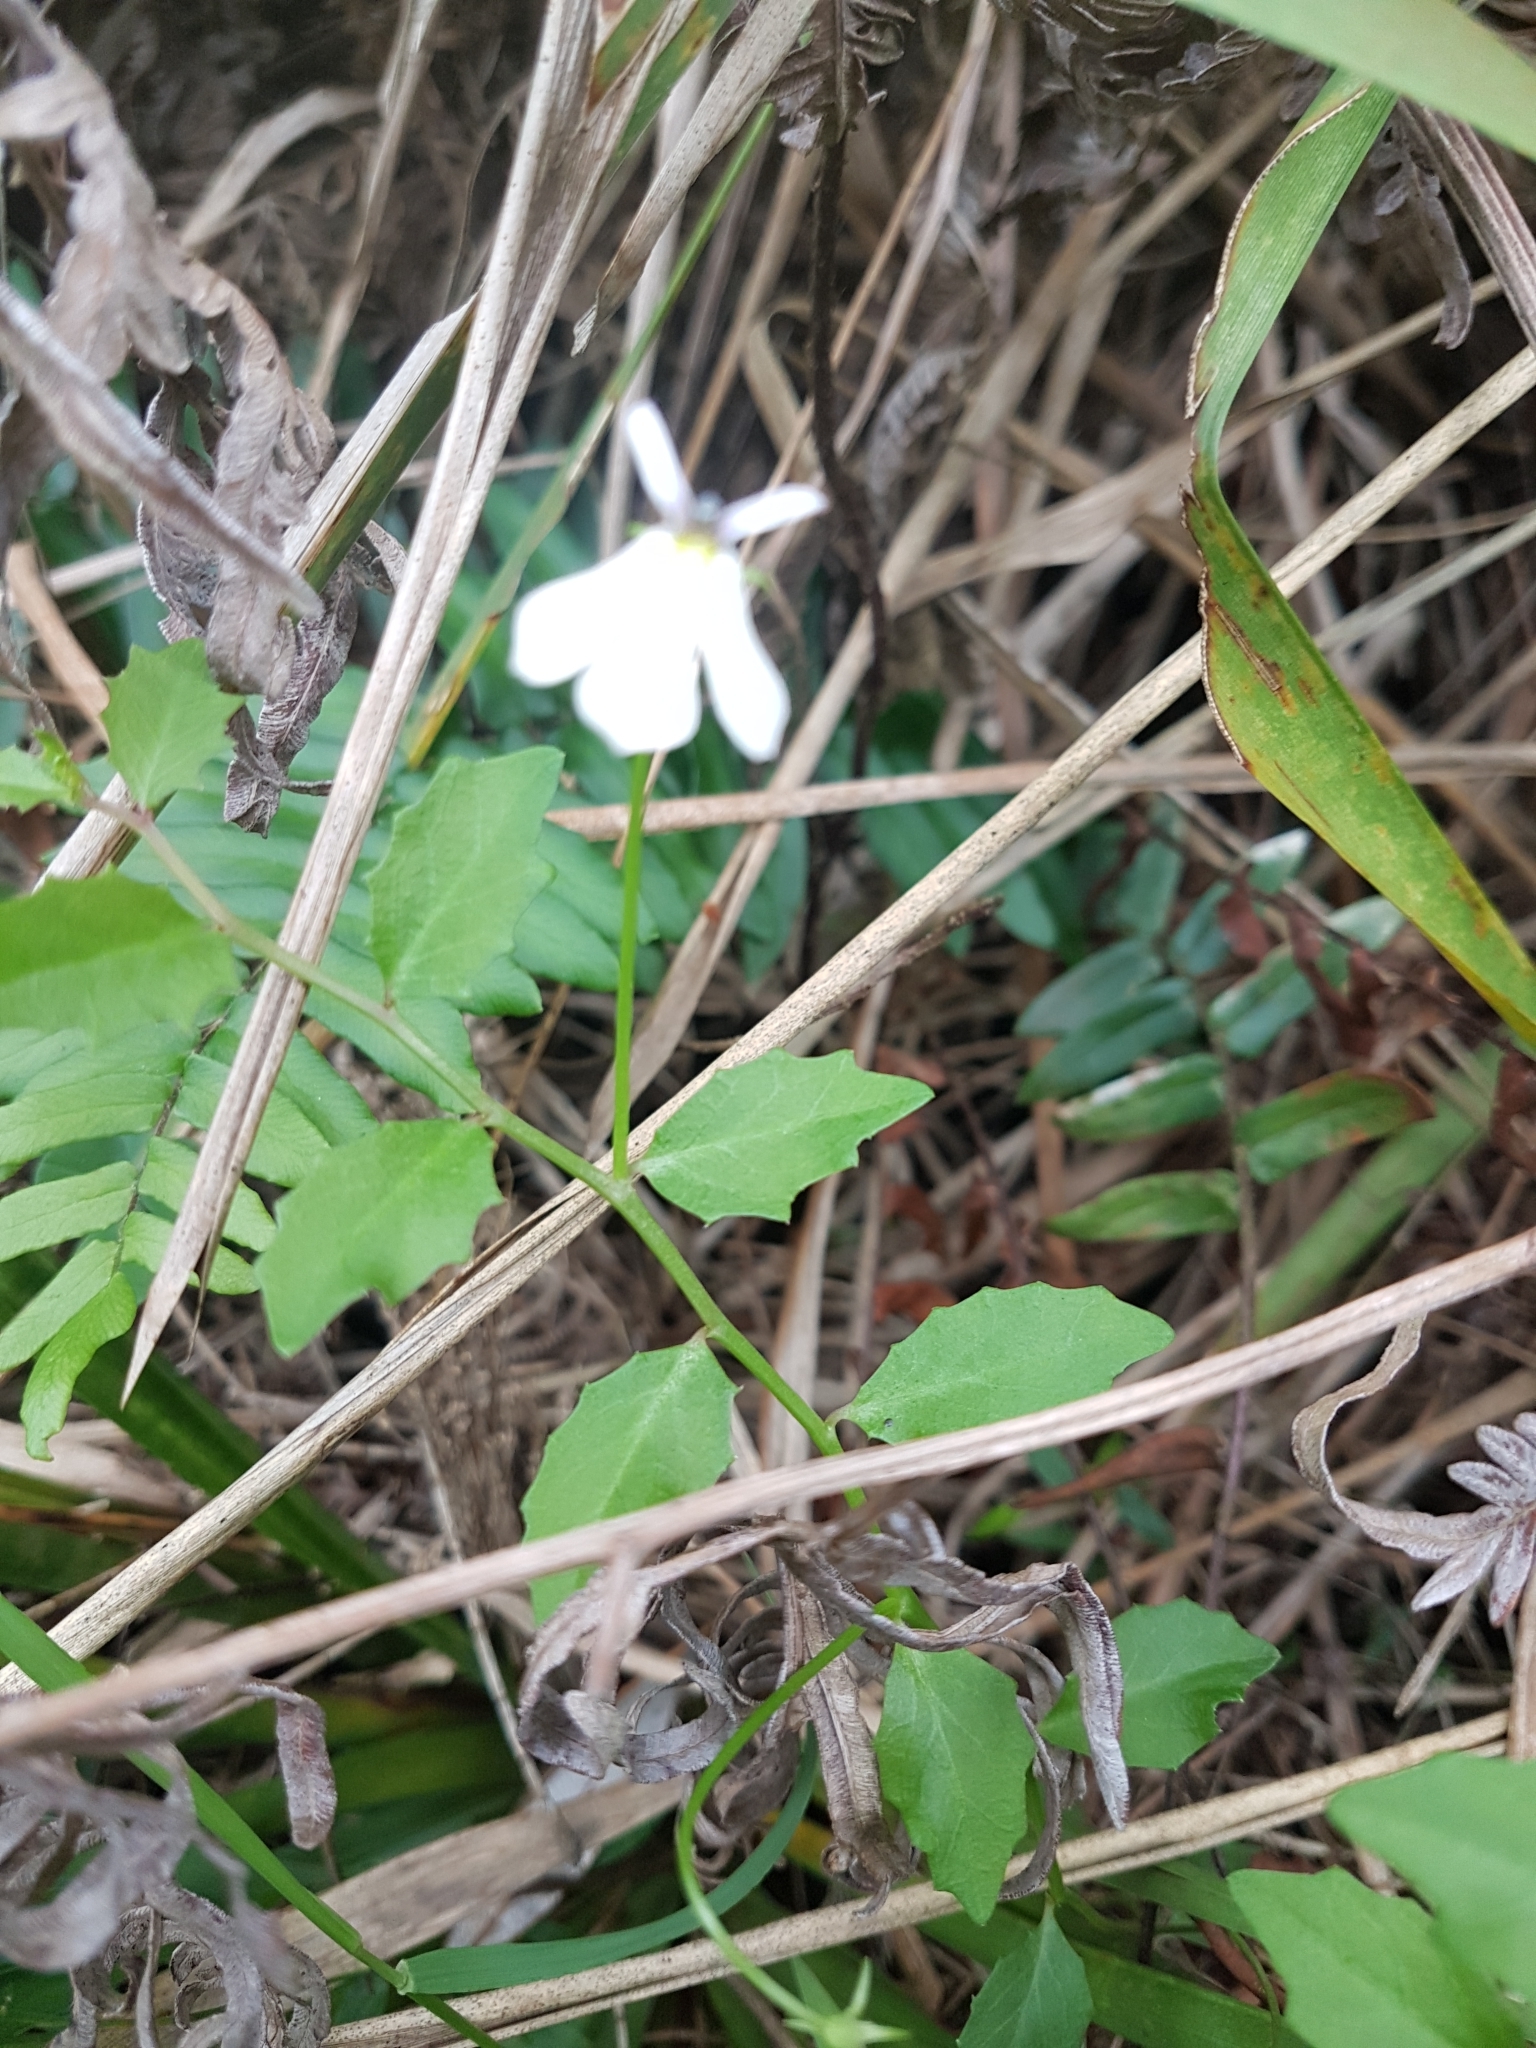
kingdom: Plantae
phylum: Tracheophyta
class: Magnoliopsida
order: Asterales
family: Campanulaceae
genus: Lobelia
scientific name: Lobelia purpurascens
